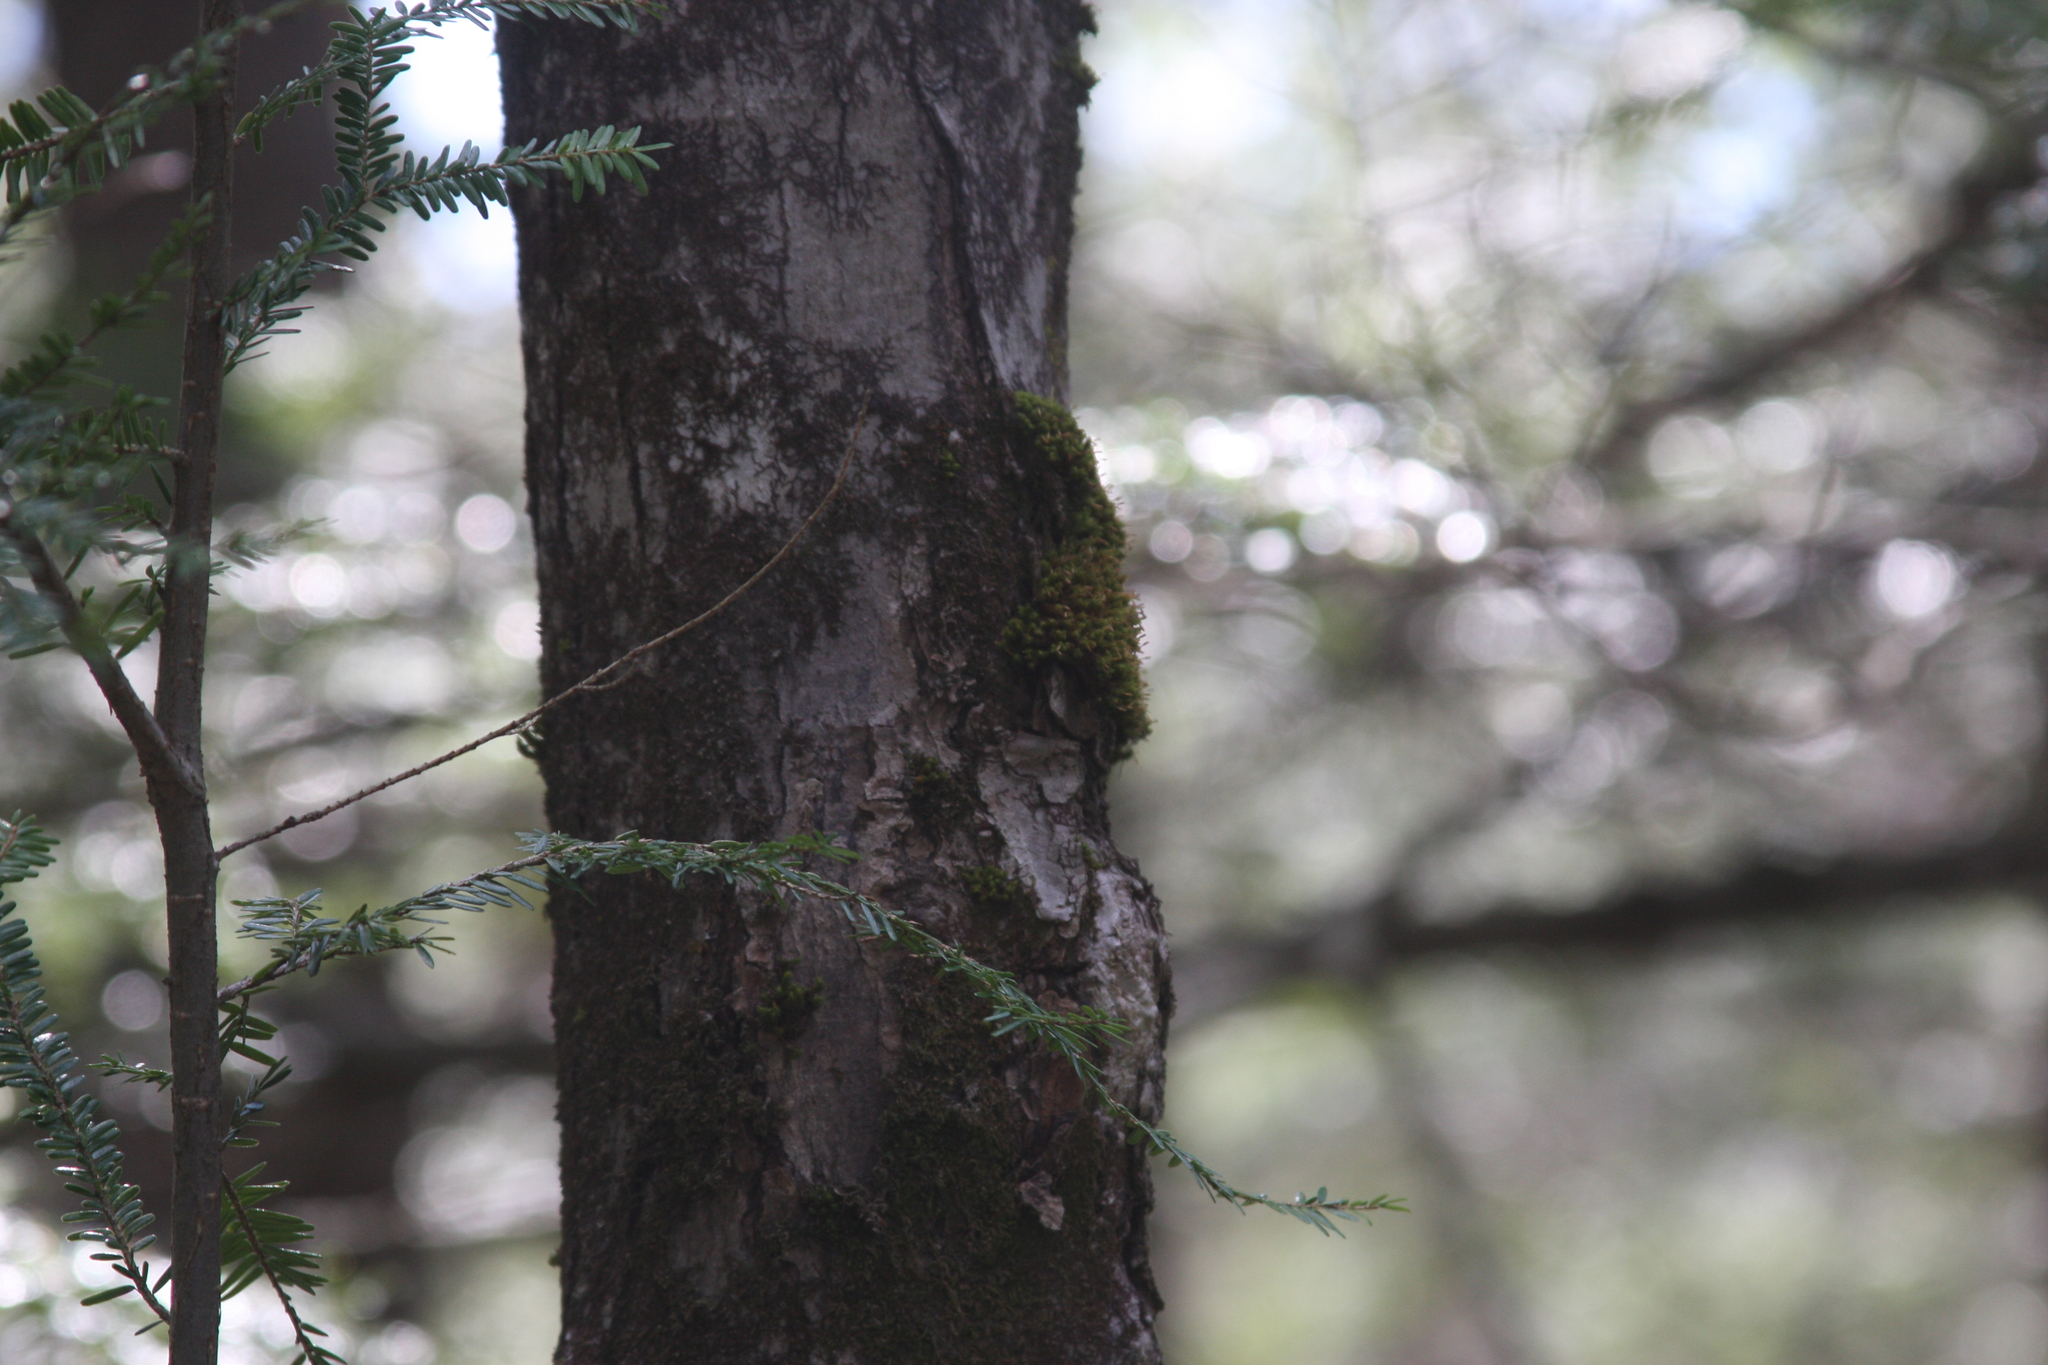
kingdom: Plantae
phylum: Bryophyta
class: Bryopsida
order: Orthotrichales
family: Orthotrichaceae
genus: Ulota
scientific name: Ulota crispa
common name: Crisped pincushion moss
